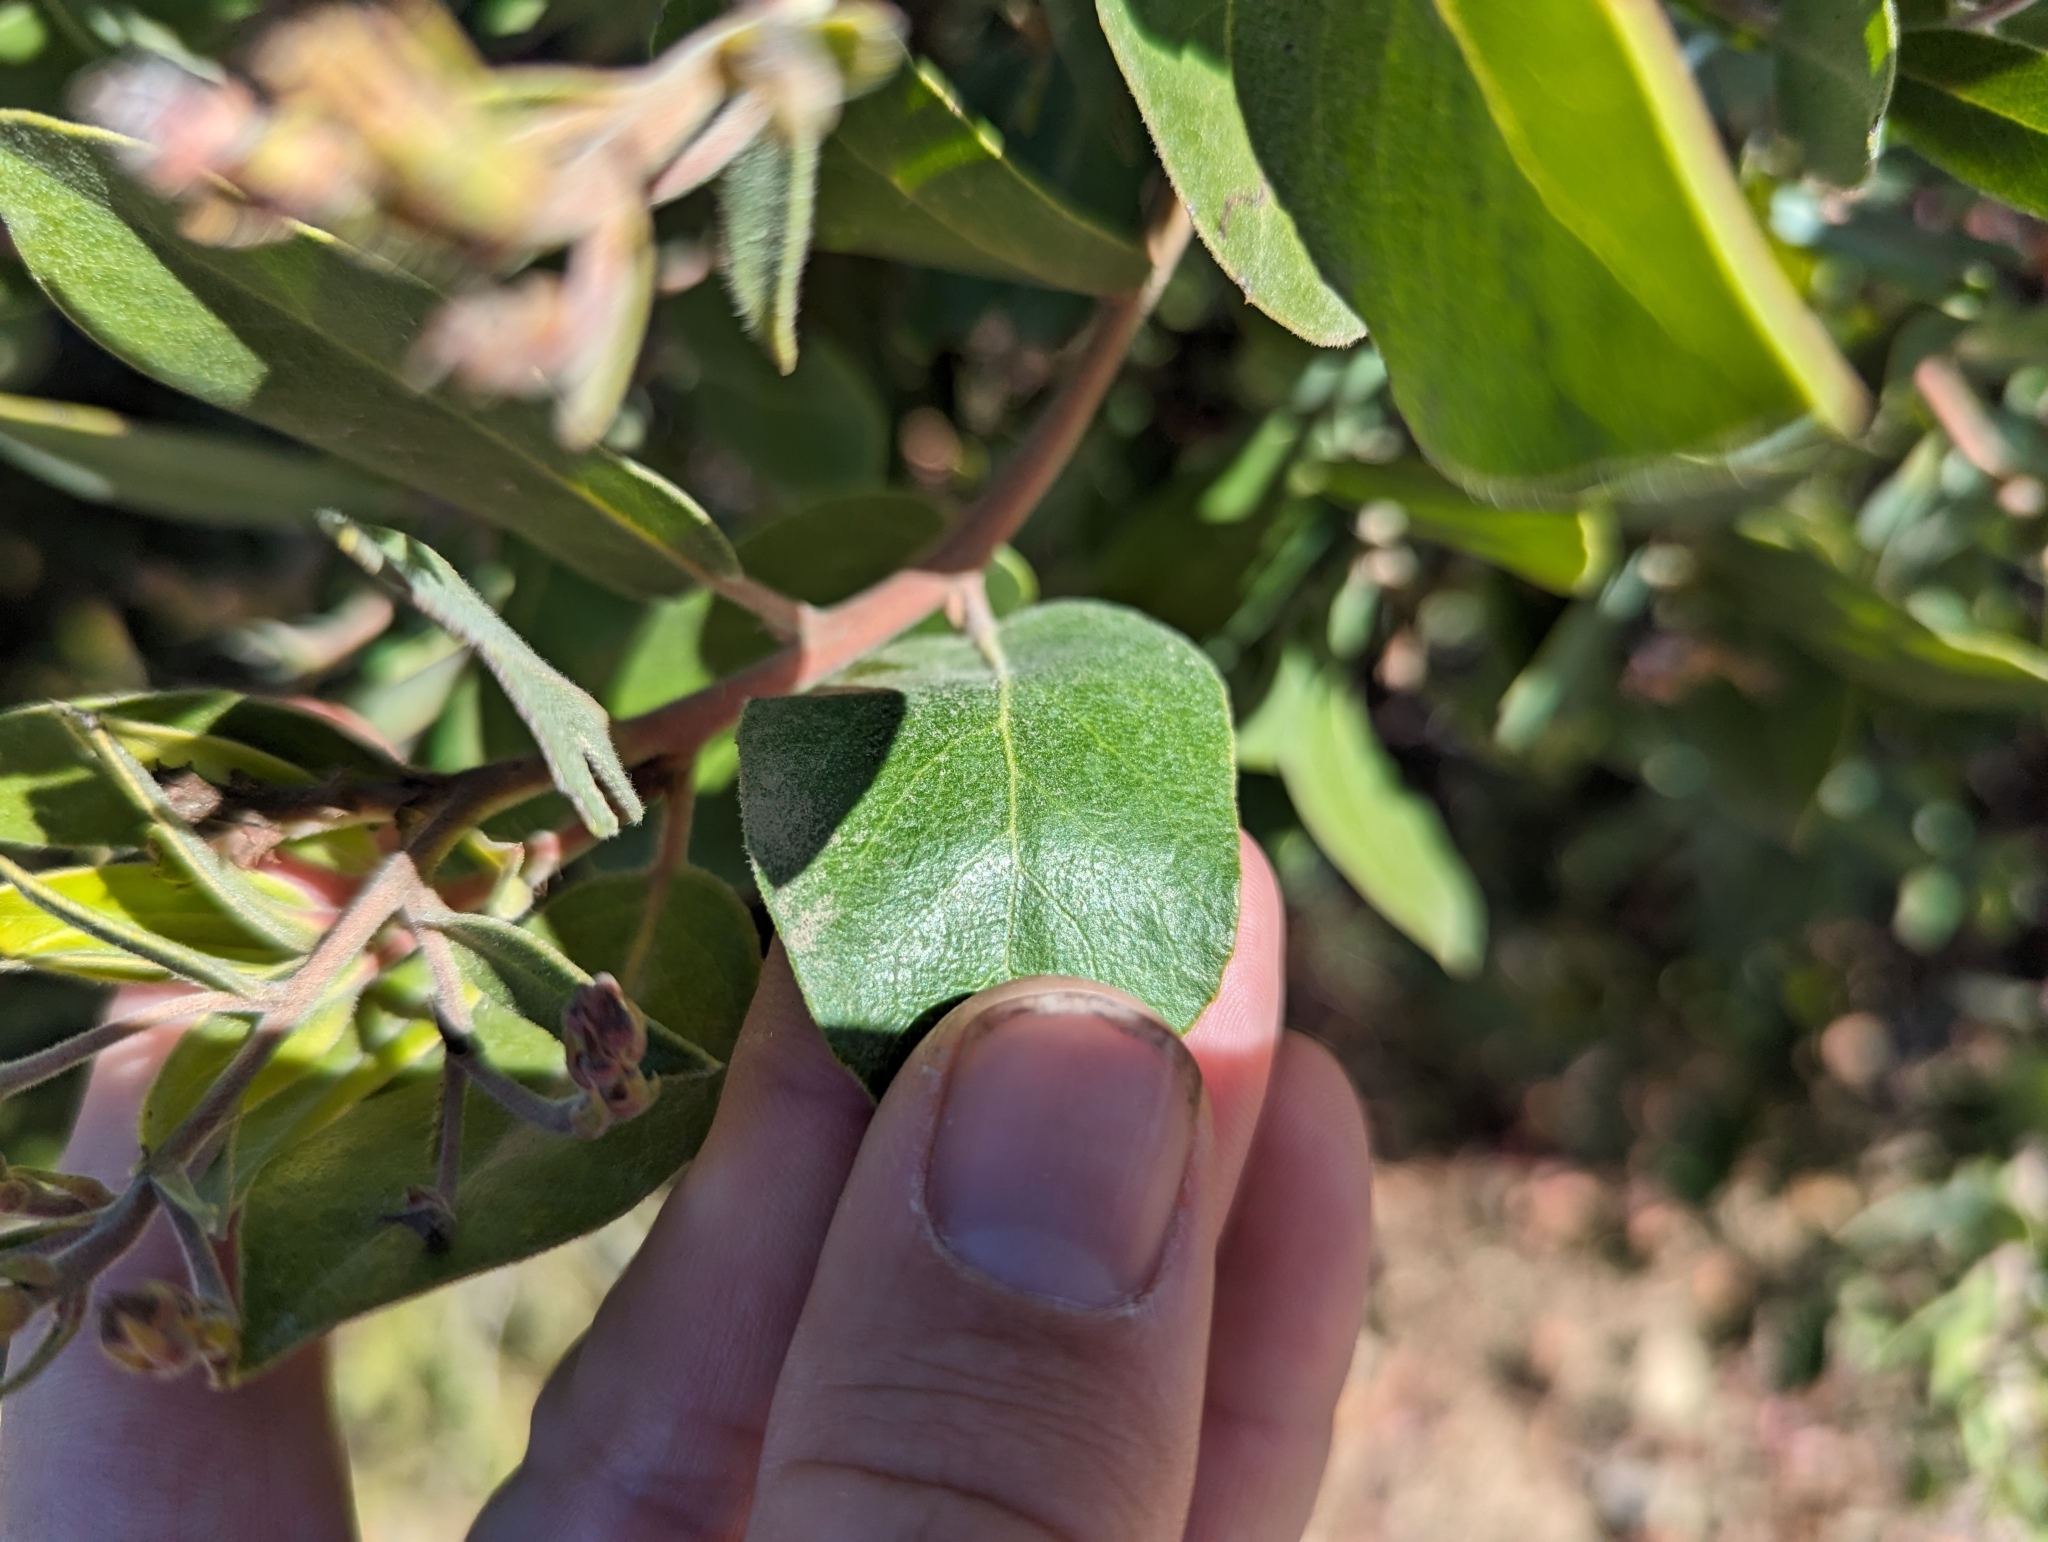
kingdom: Plantae
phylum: Tracheophyta
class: Magnoliopsida
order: Ericales
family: Ericaceae
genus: Arctostaphylos
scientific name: Arctostaphylos crustacea
